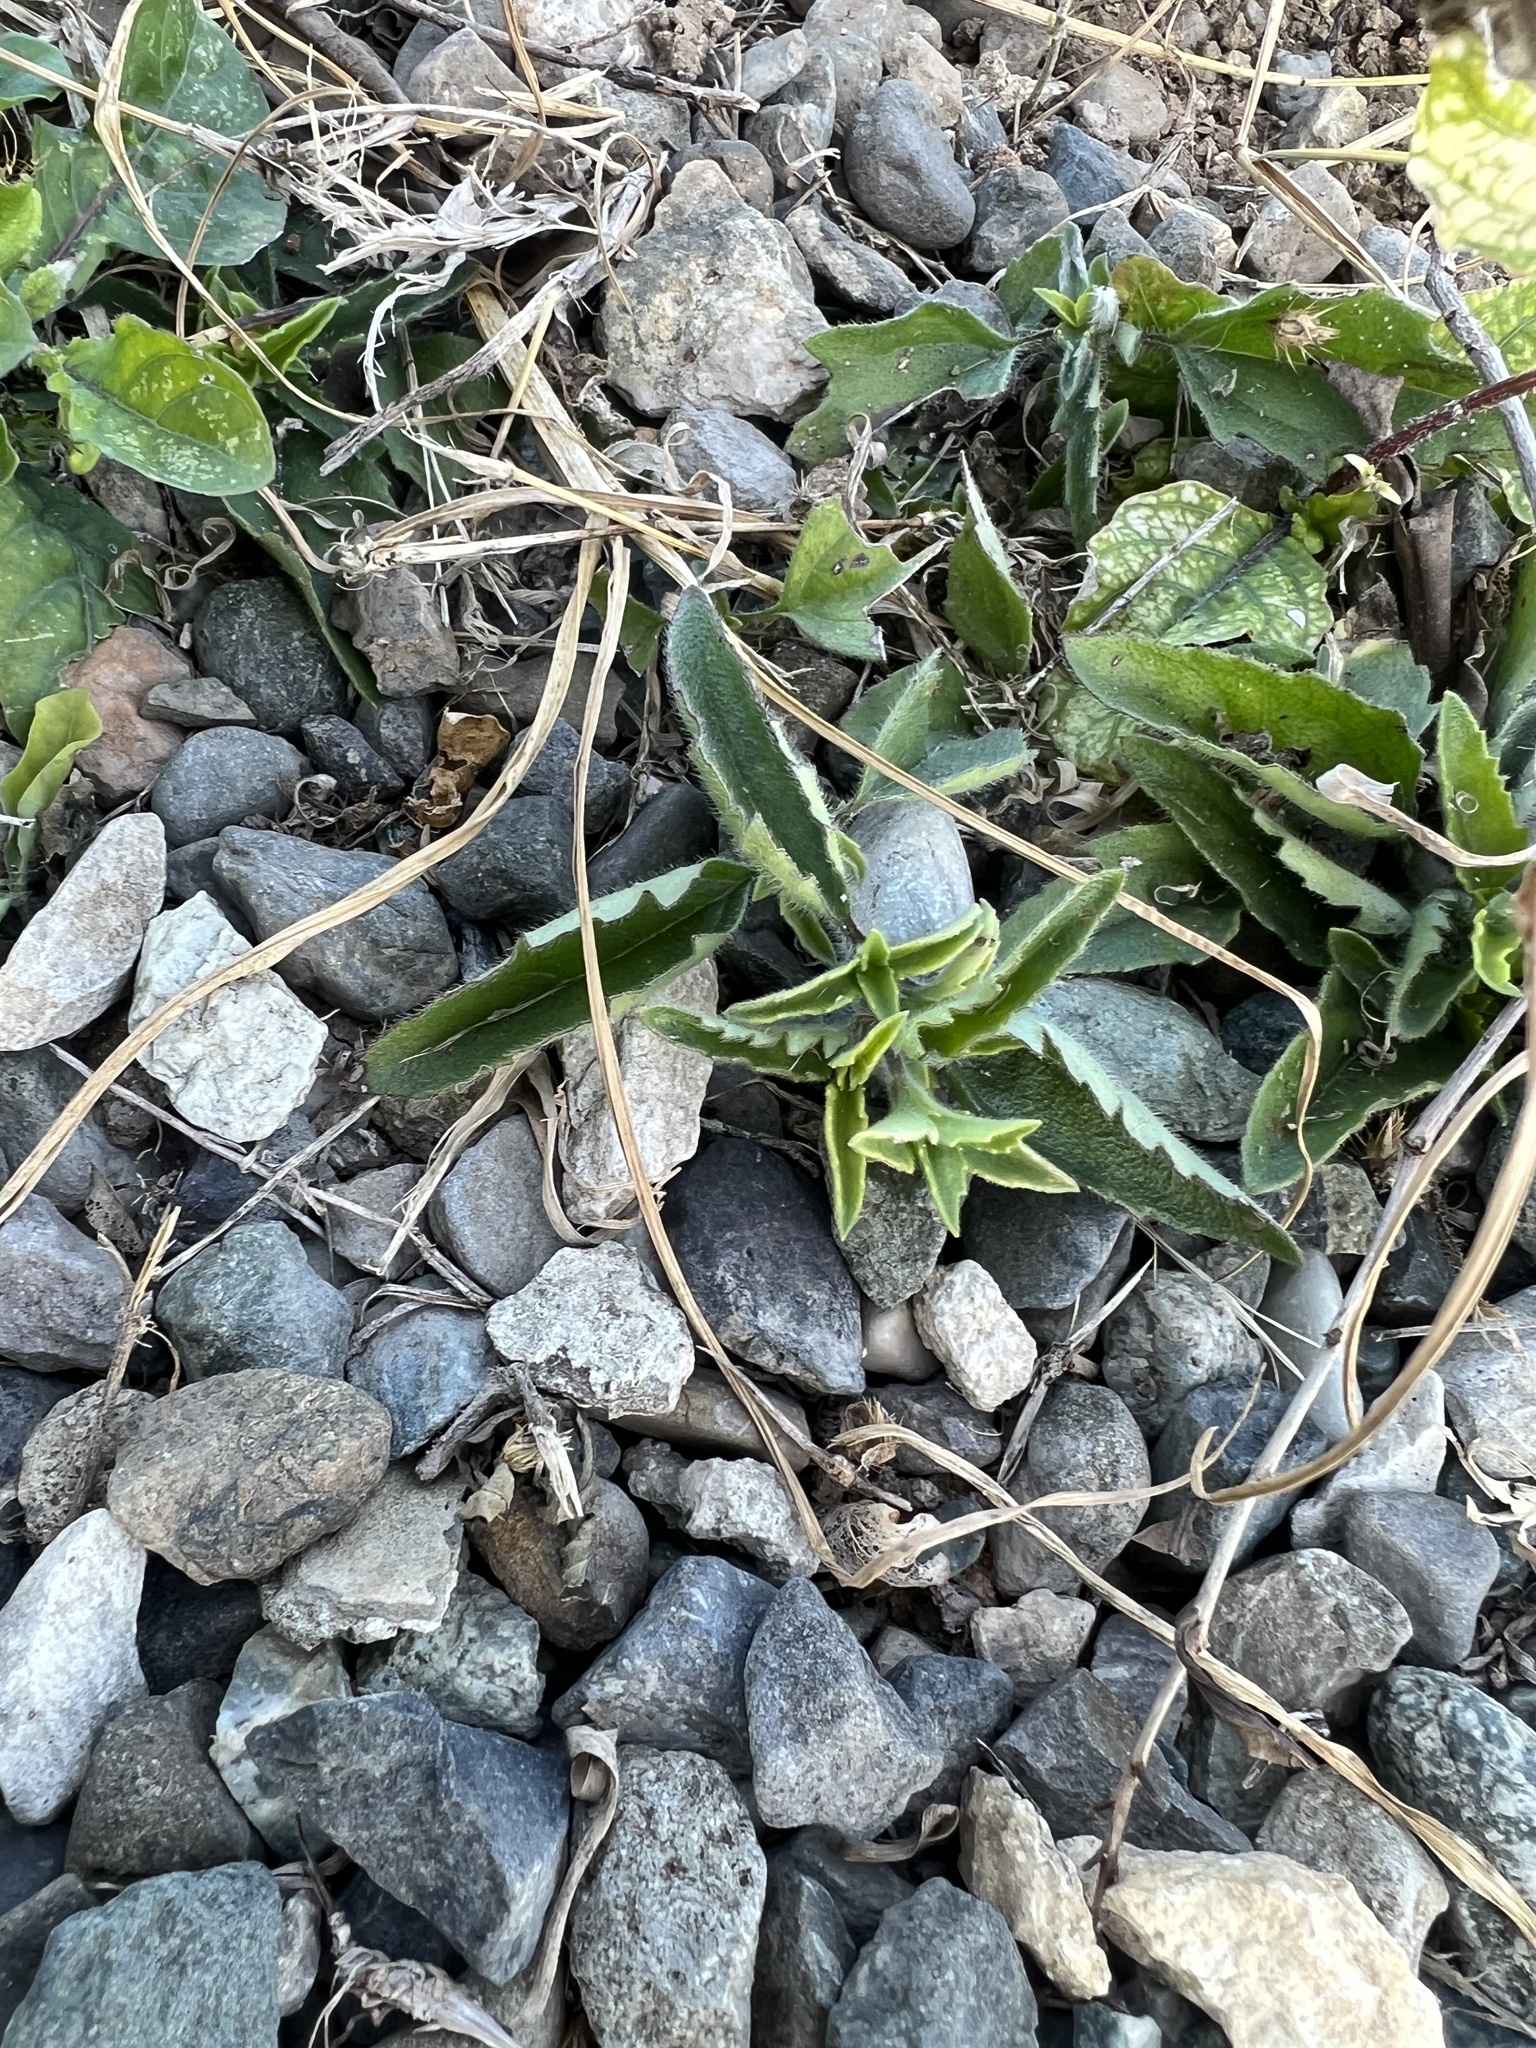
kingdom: Plantae
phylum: Tracheophyta
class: Magnoliopsida
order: Asterales
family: Asteraceae
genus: Tridax
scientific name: Tridax procumbens
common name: Coatbuttons
